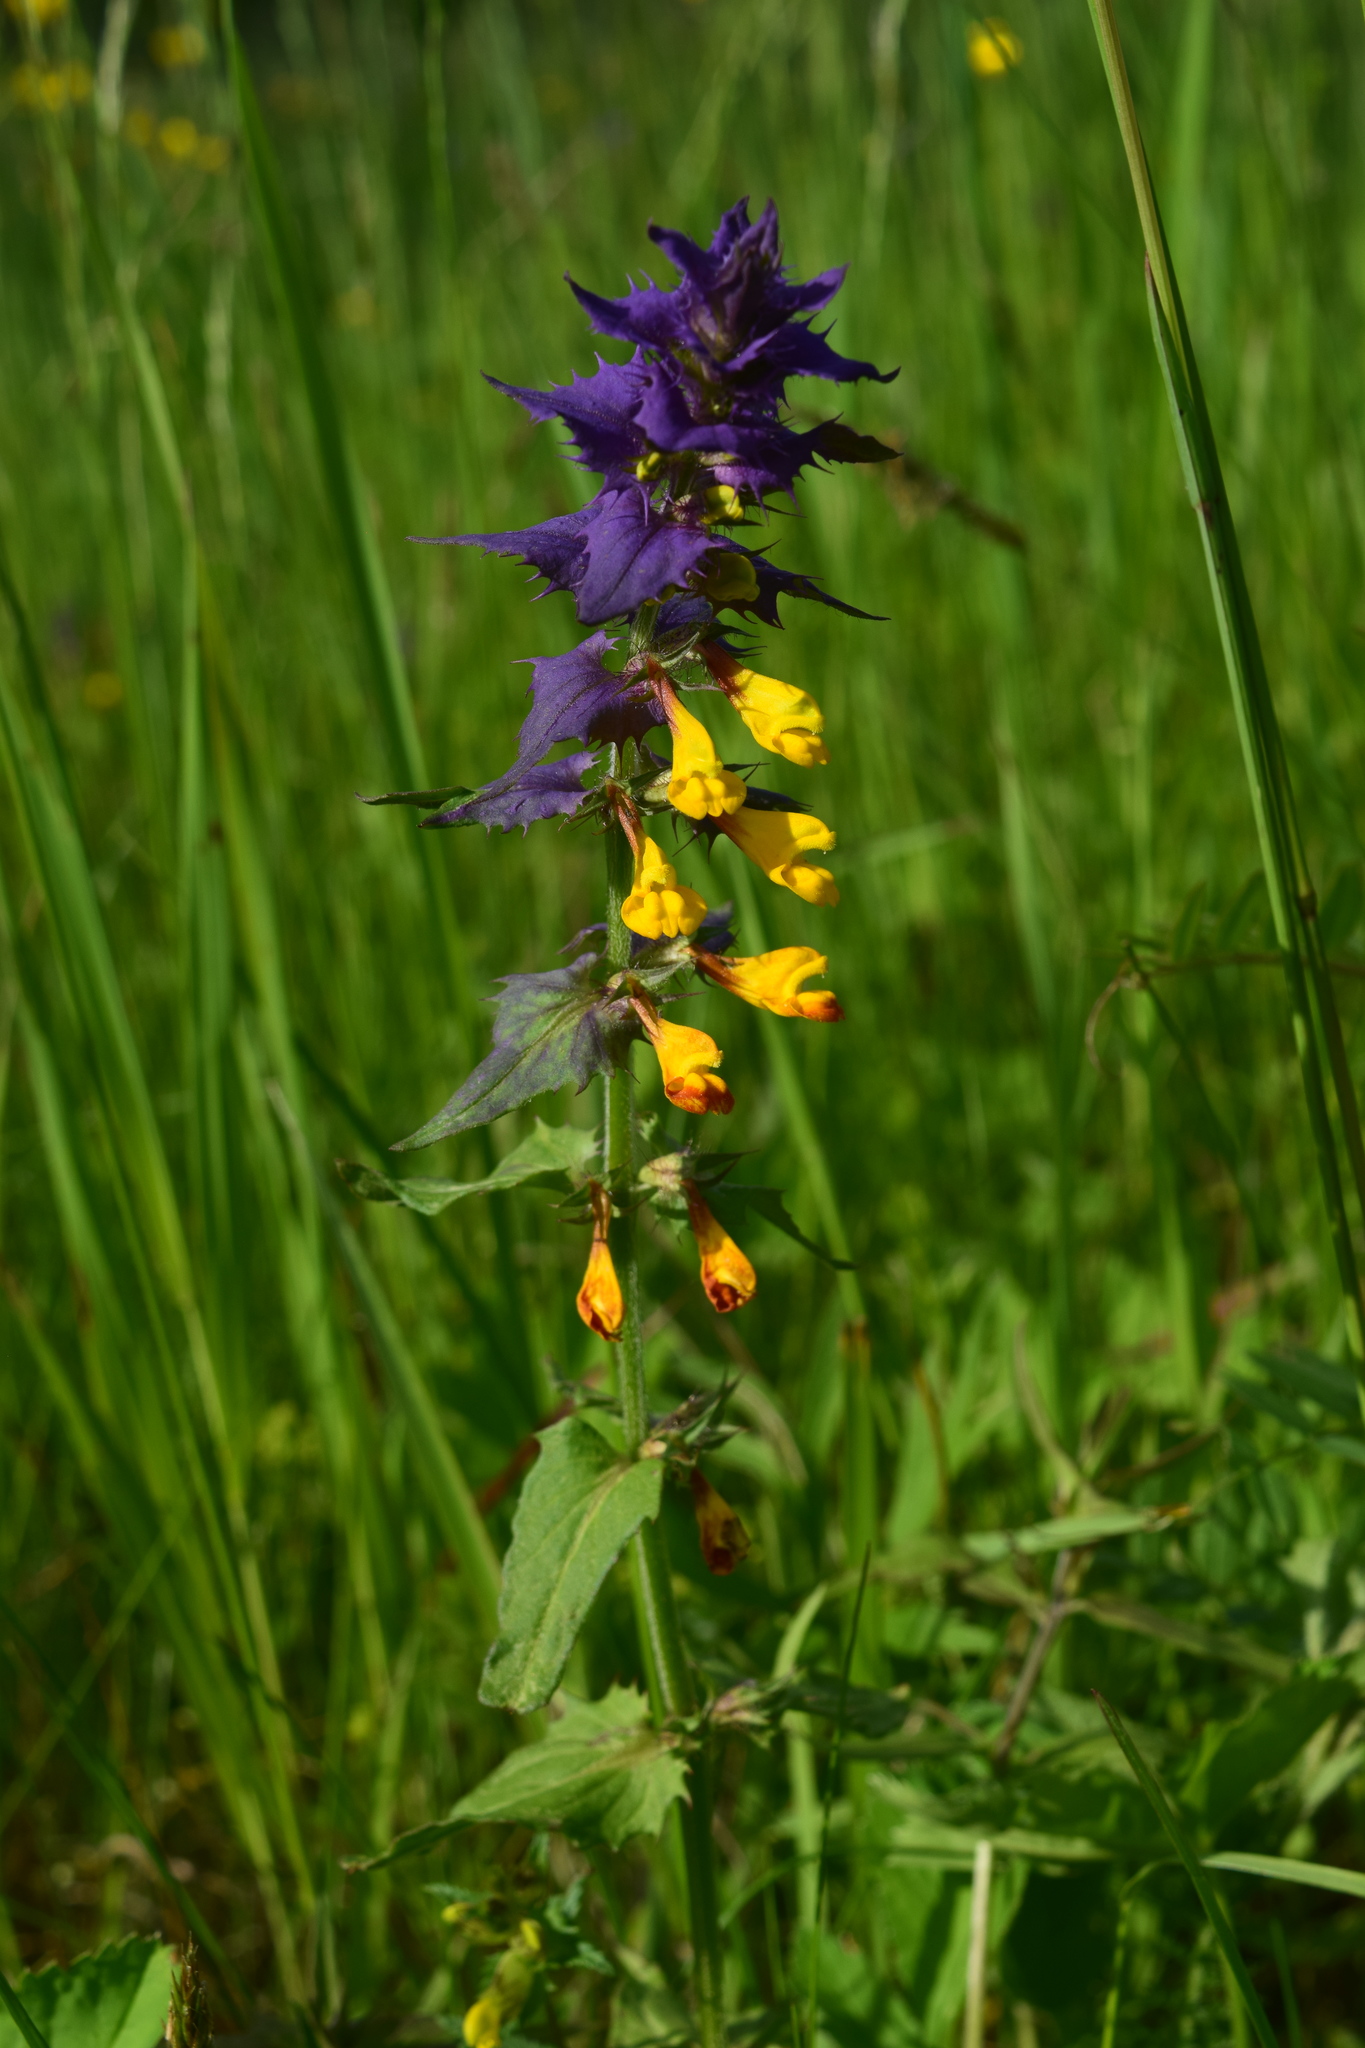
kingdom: Plantae
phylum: Tracheophyta
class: Magnoliopsida
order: Lamiales
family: Orobanchaceae
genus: Melampyrum
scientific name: Melampyrum nemorosum
